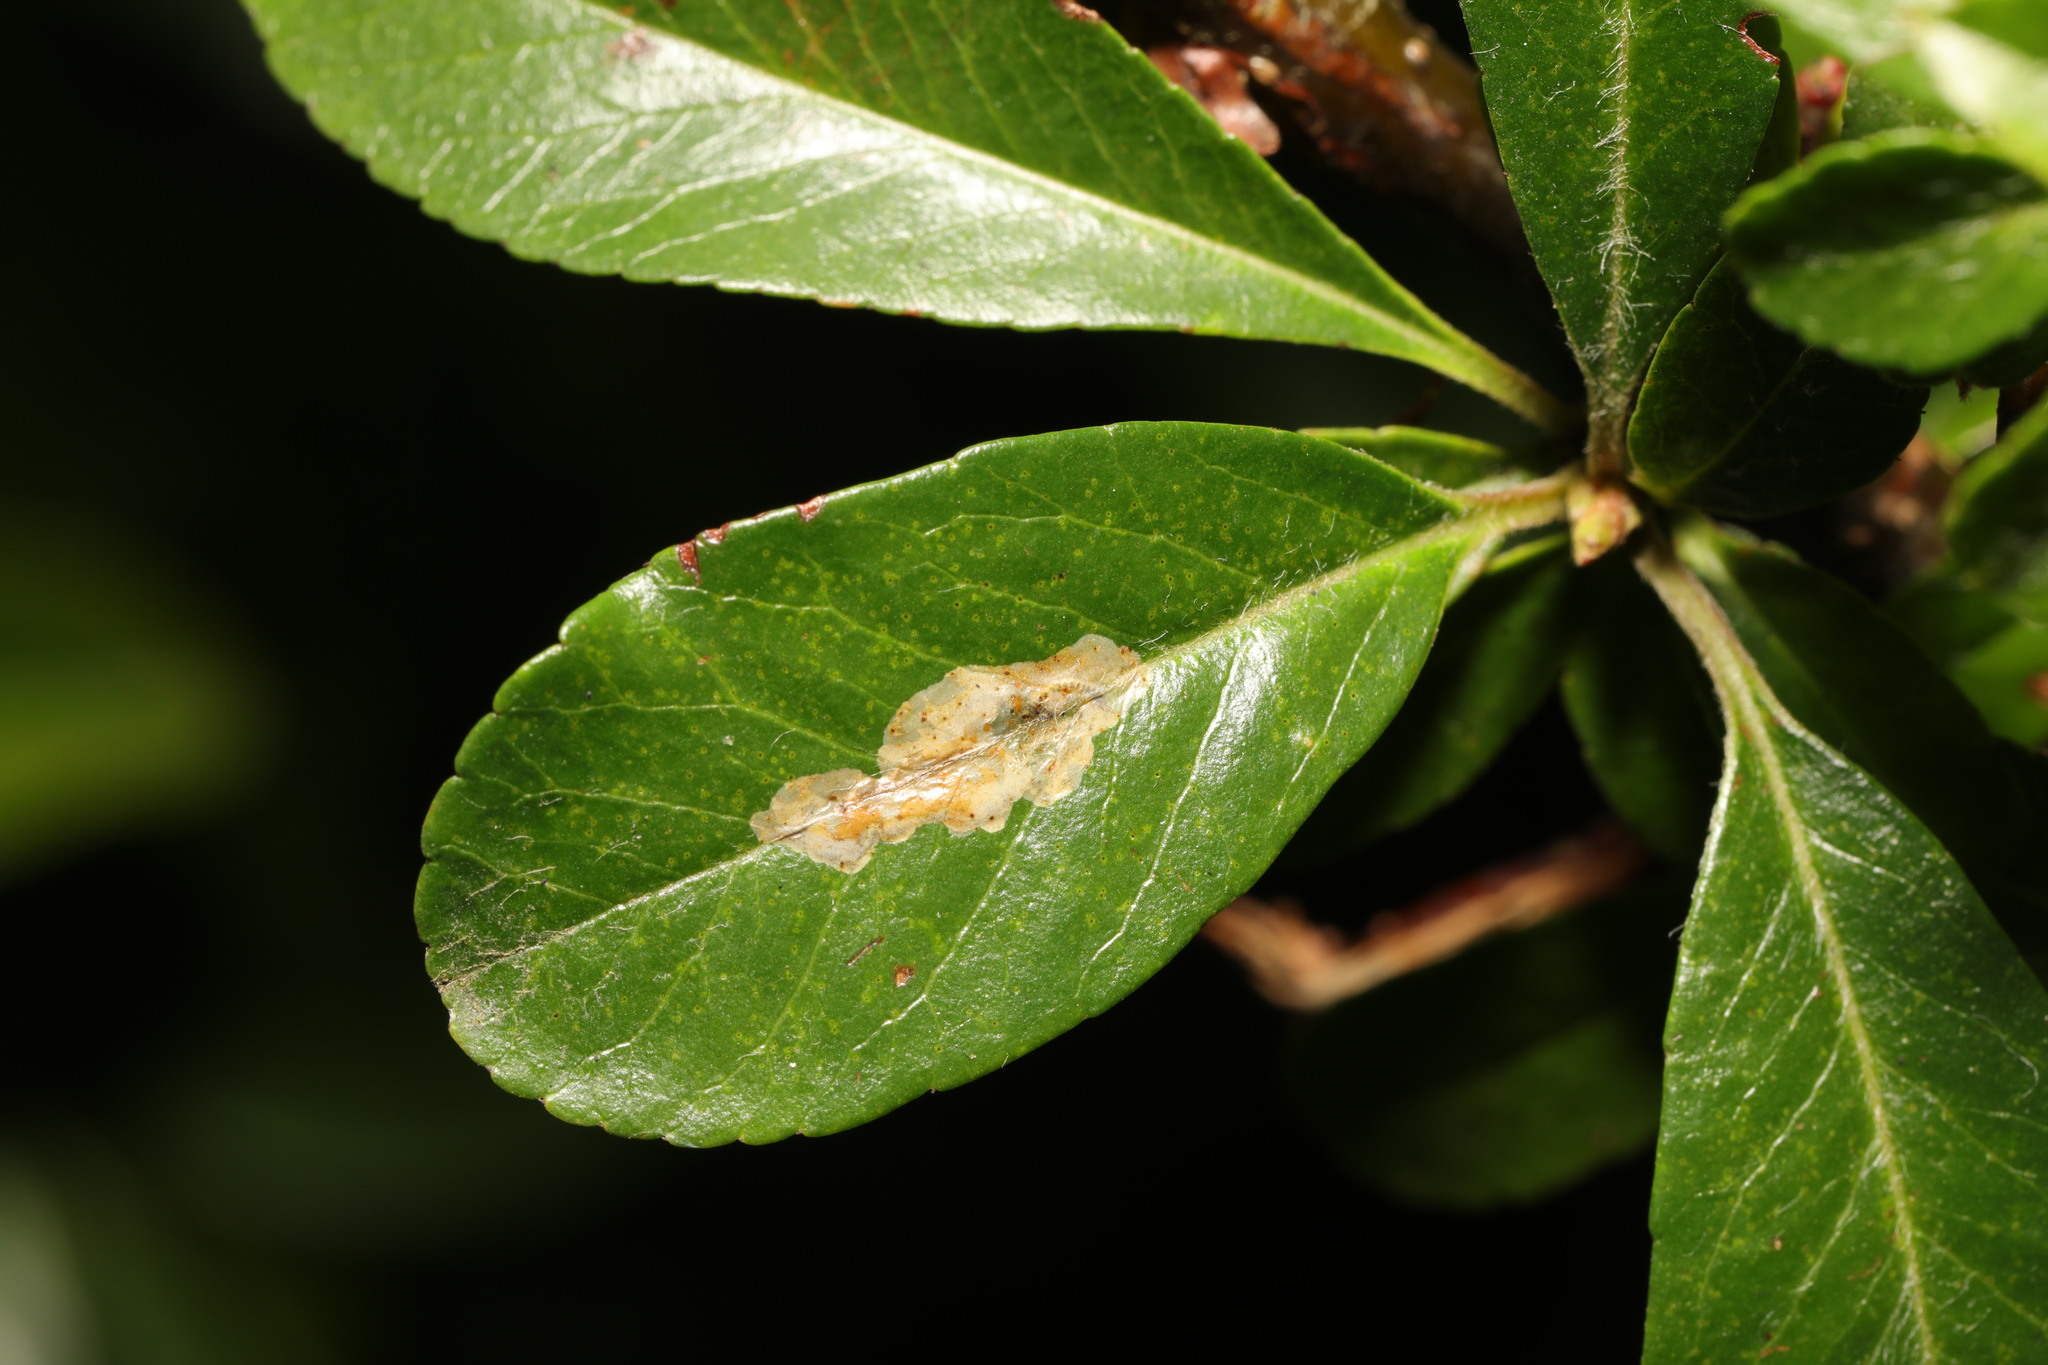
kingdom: Animalia
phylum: Arthropoda
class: Insecta
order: Lepidoptera
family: Gracillariidae
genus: Phyllonorycter
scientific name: Phyllonorycter leucographella
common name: Firethorn leaf-miner
